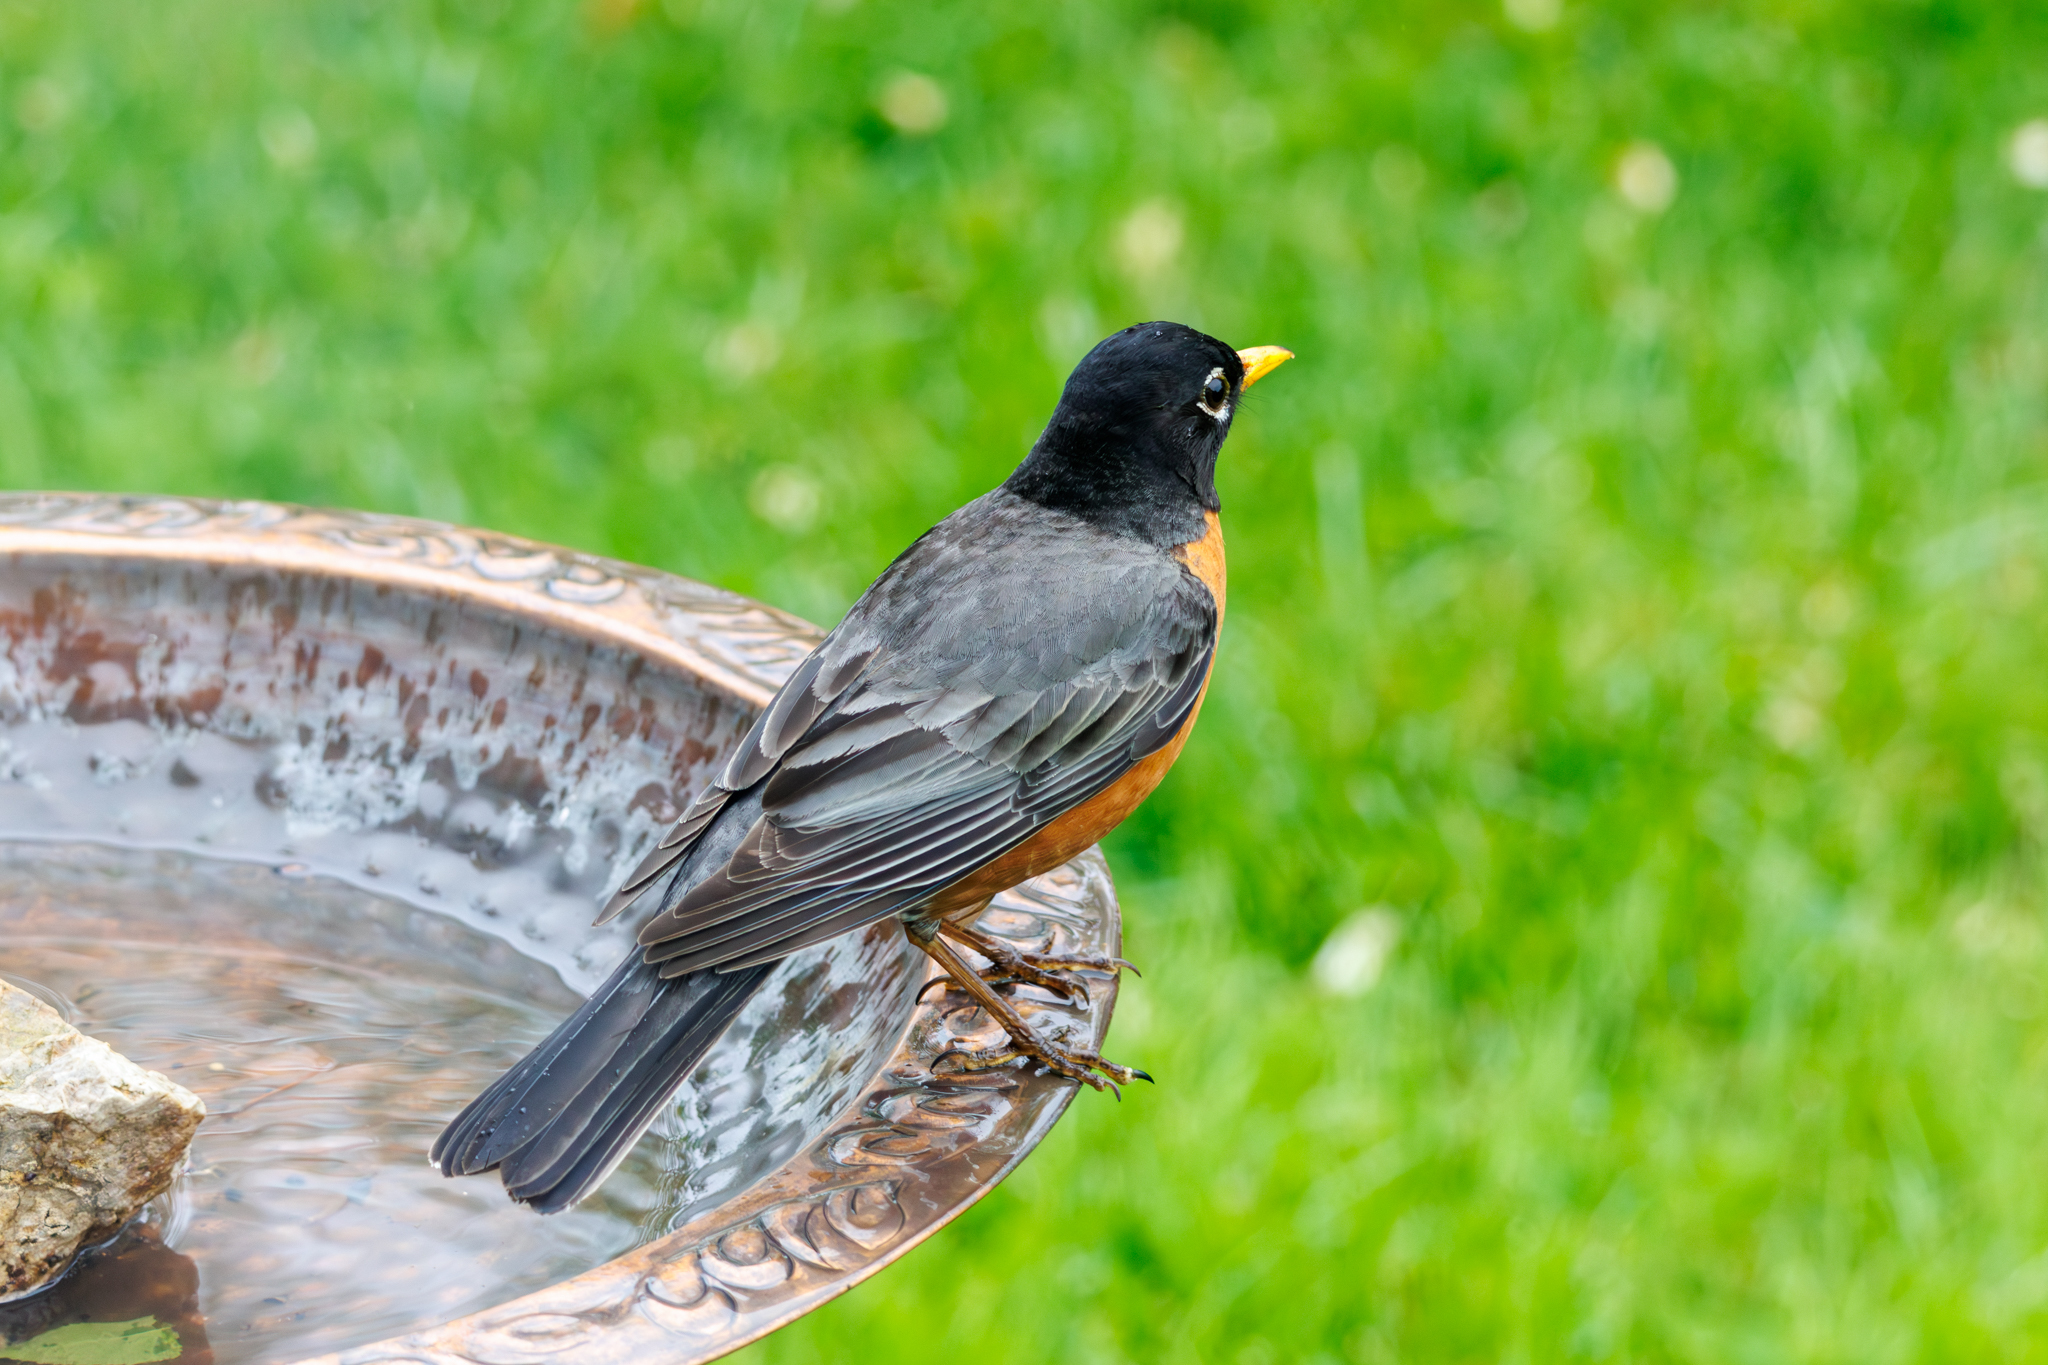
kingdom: Animalia
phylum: Chordata
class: Aves
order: Passeriformes
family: Turdidae
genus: Turdus
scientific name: Turdus migratorius
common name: American robin
